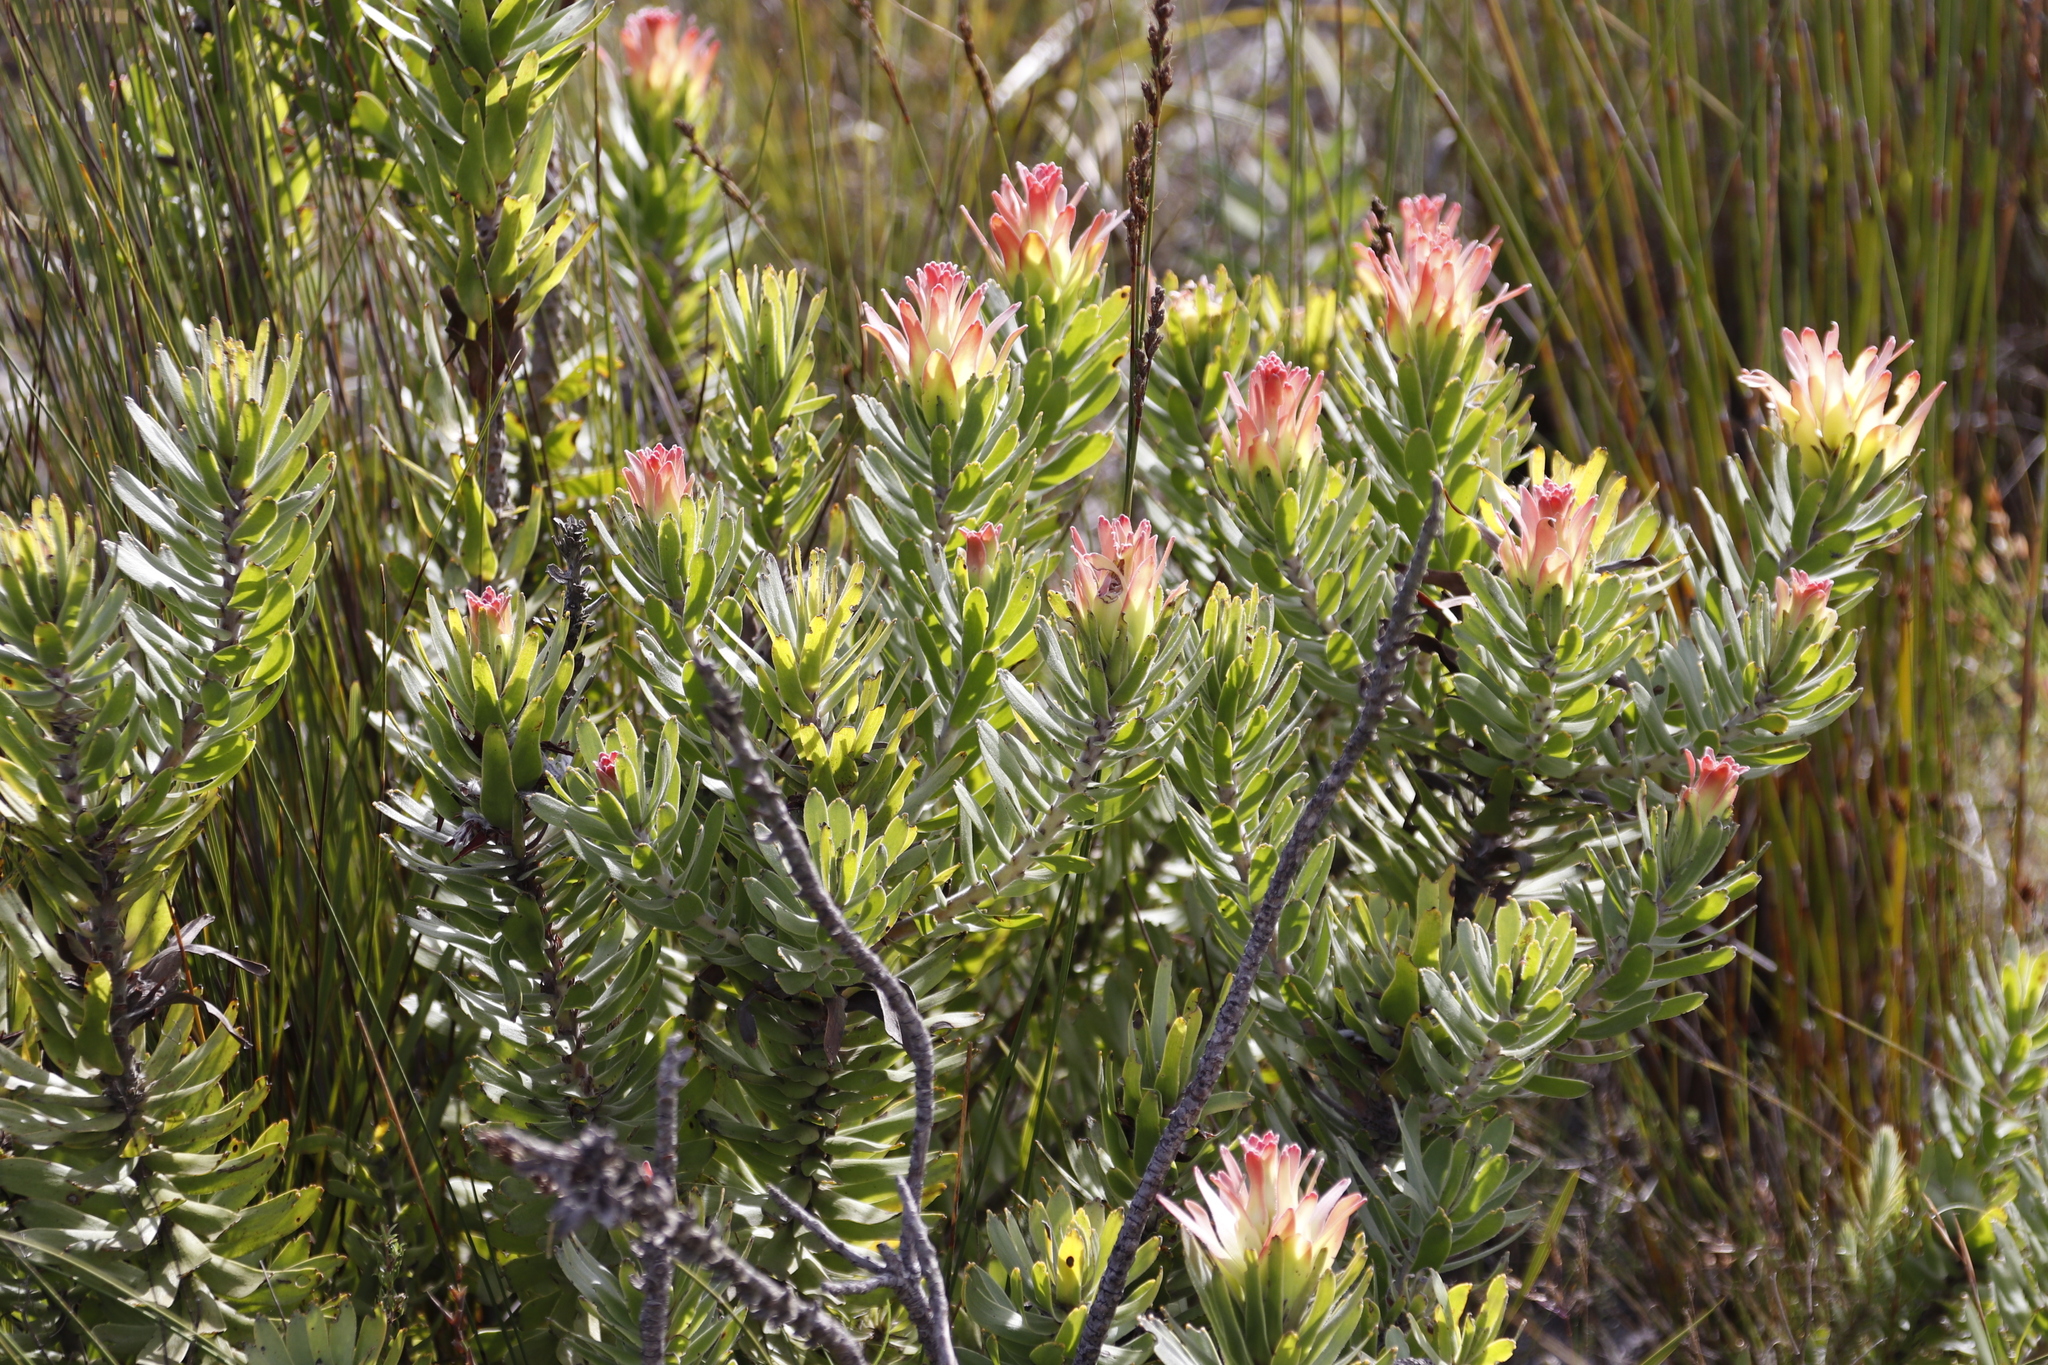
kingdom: Plantae
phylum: Tracheophyta
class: Magnoliopsida
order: Proteales
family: Proteaceae
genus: Mimetes
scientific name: Mimetes cucullatus
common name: Common pagoda
